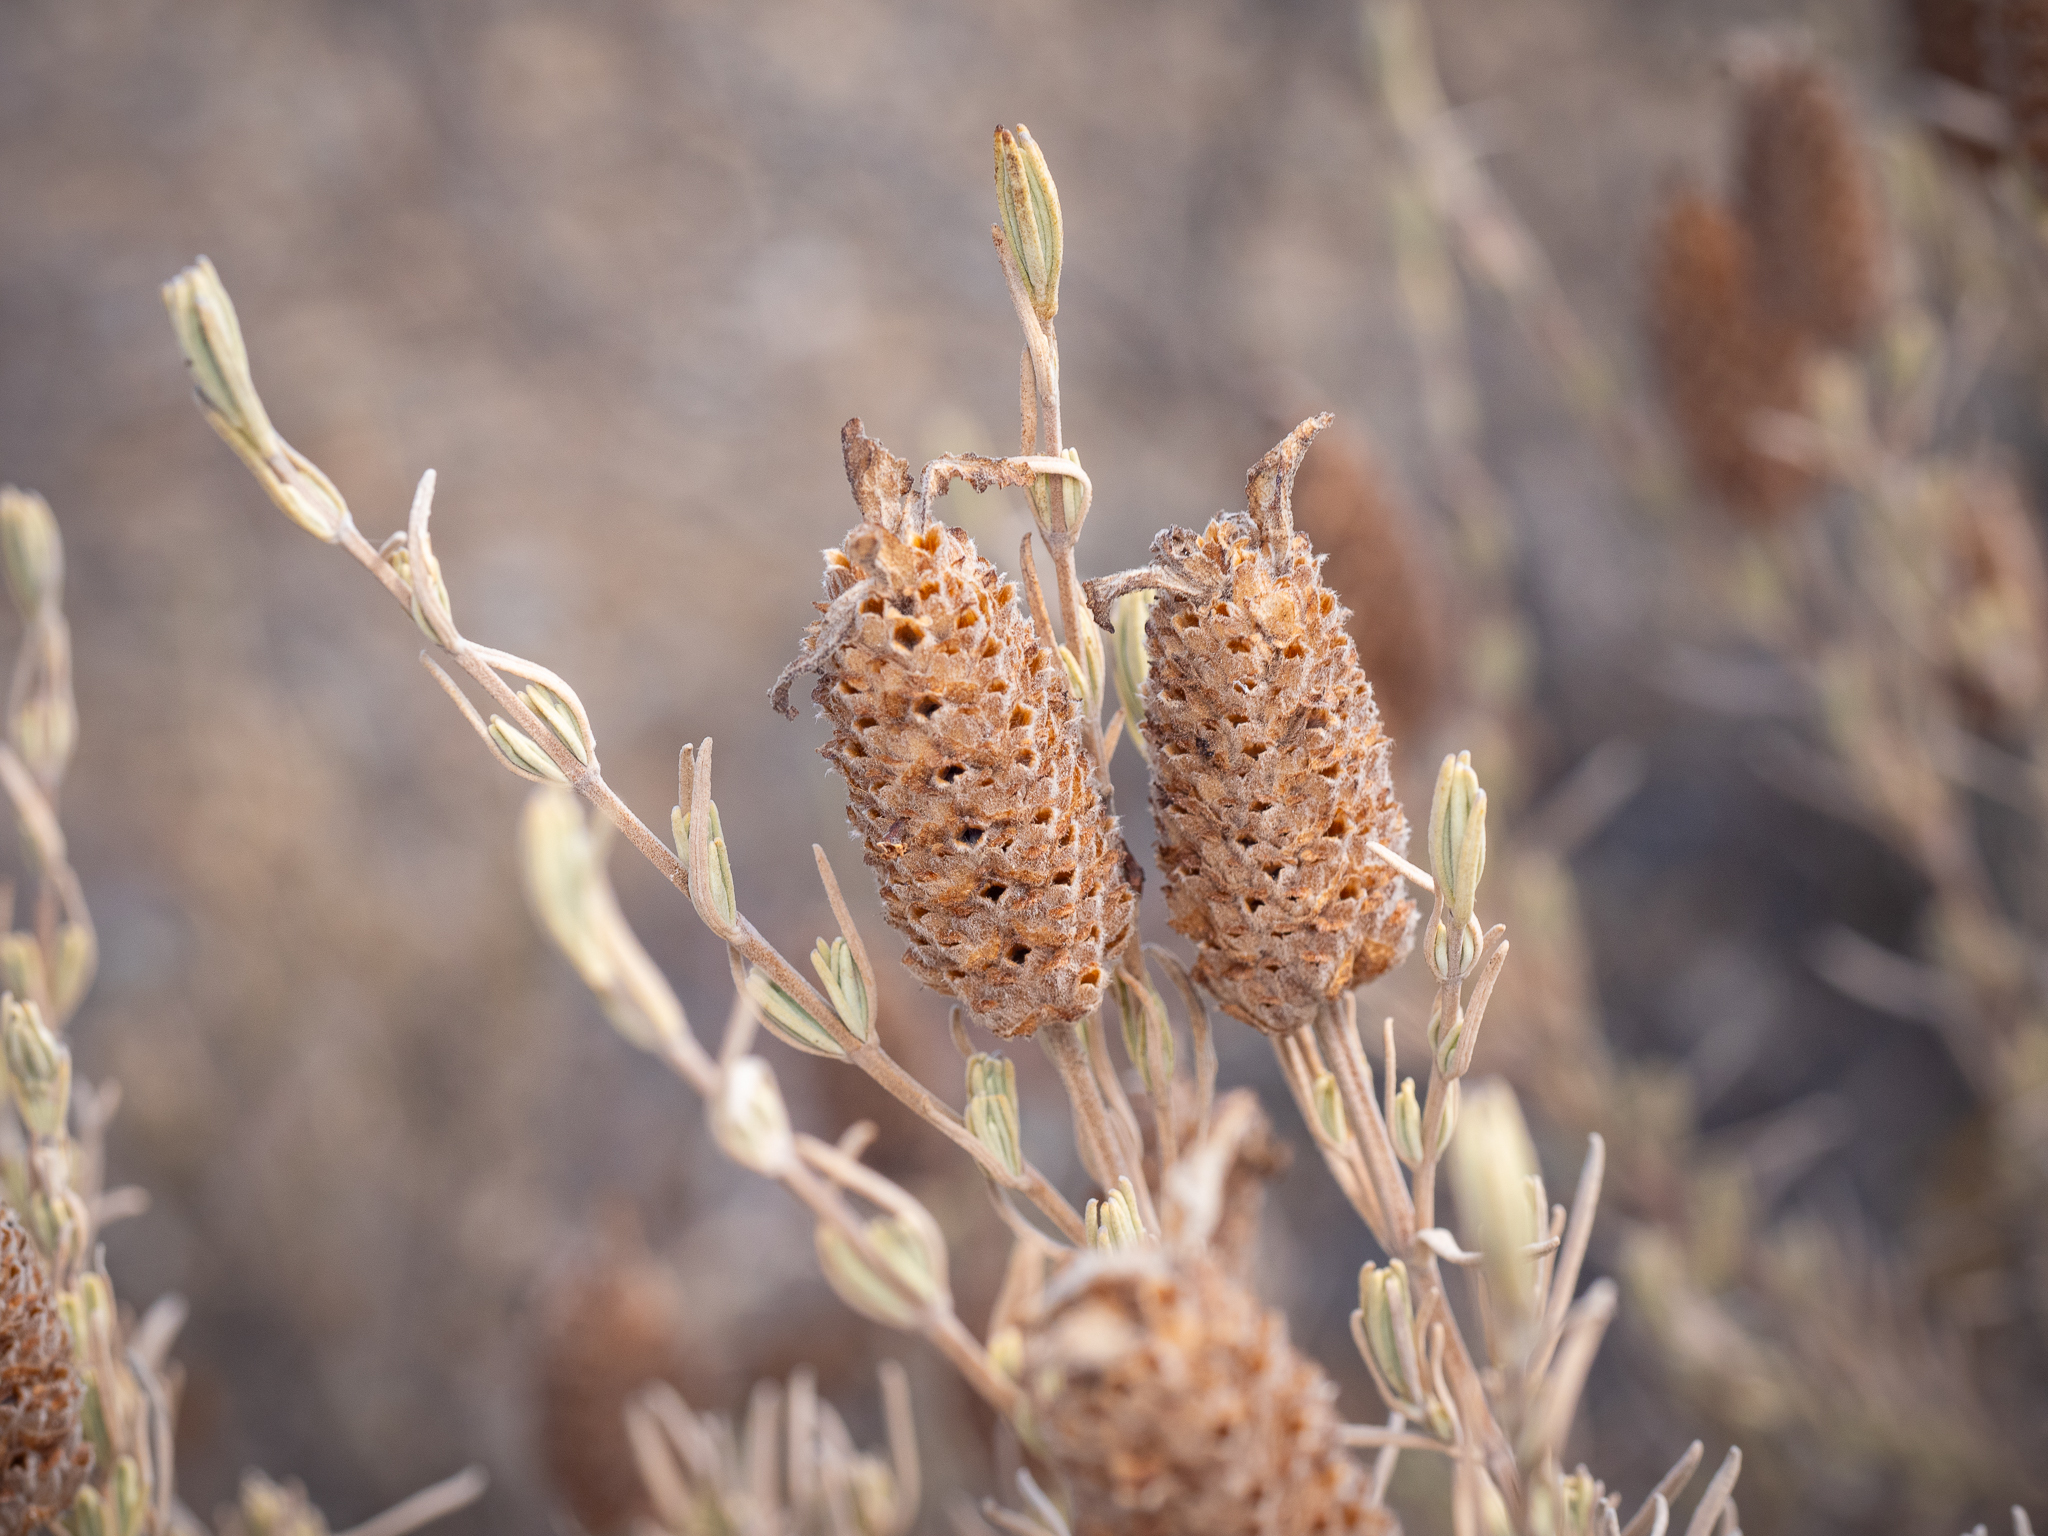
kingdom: Plantae
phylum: Tracheophyta
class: Magnoliopsida
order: Lamiales
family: Lamiaceae
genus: Lavandula
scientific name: Lavandula stoechas
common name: French lavender
